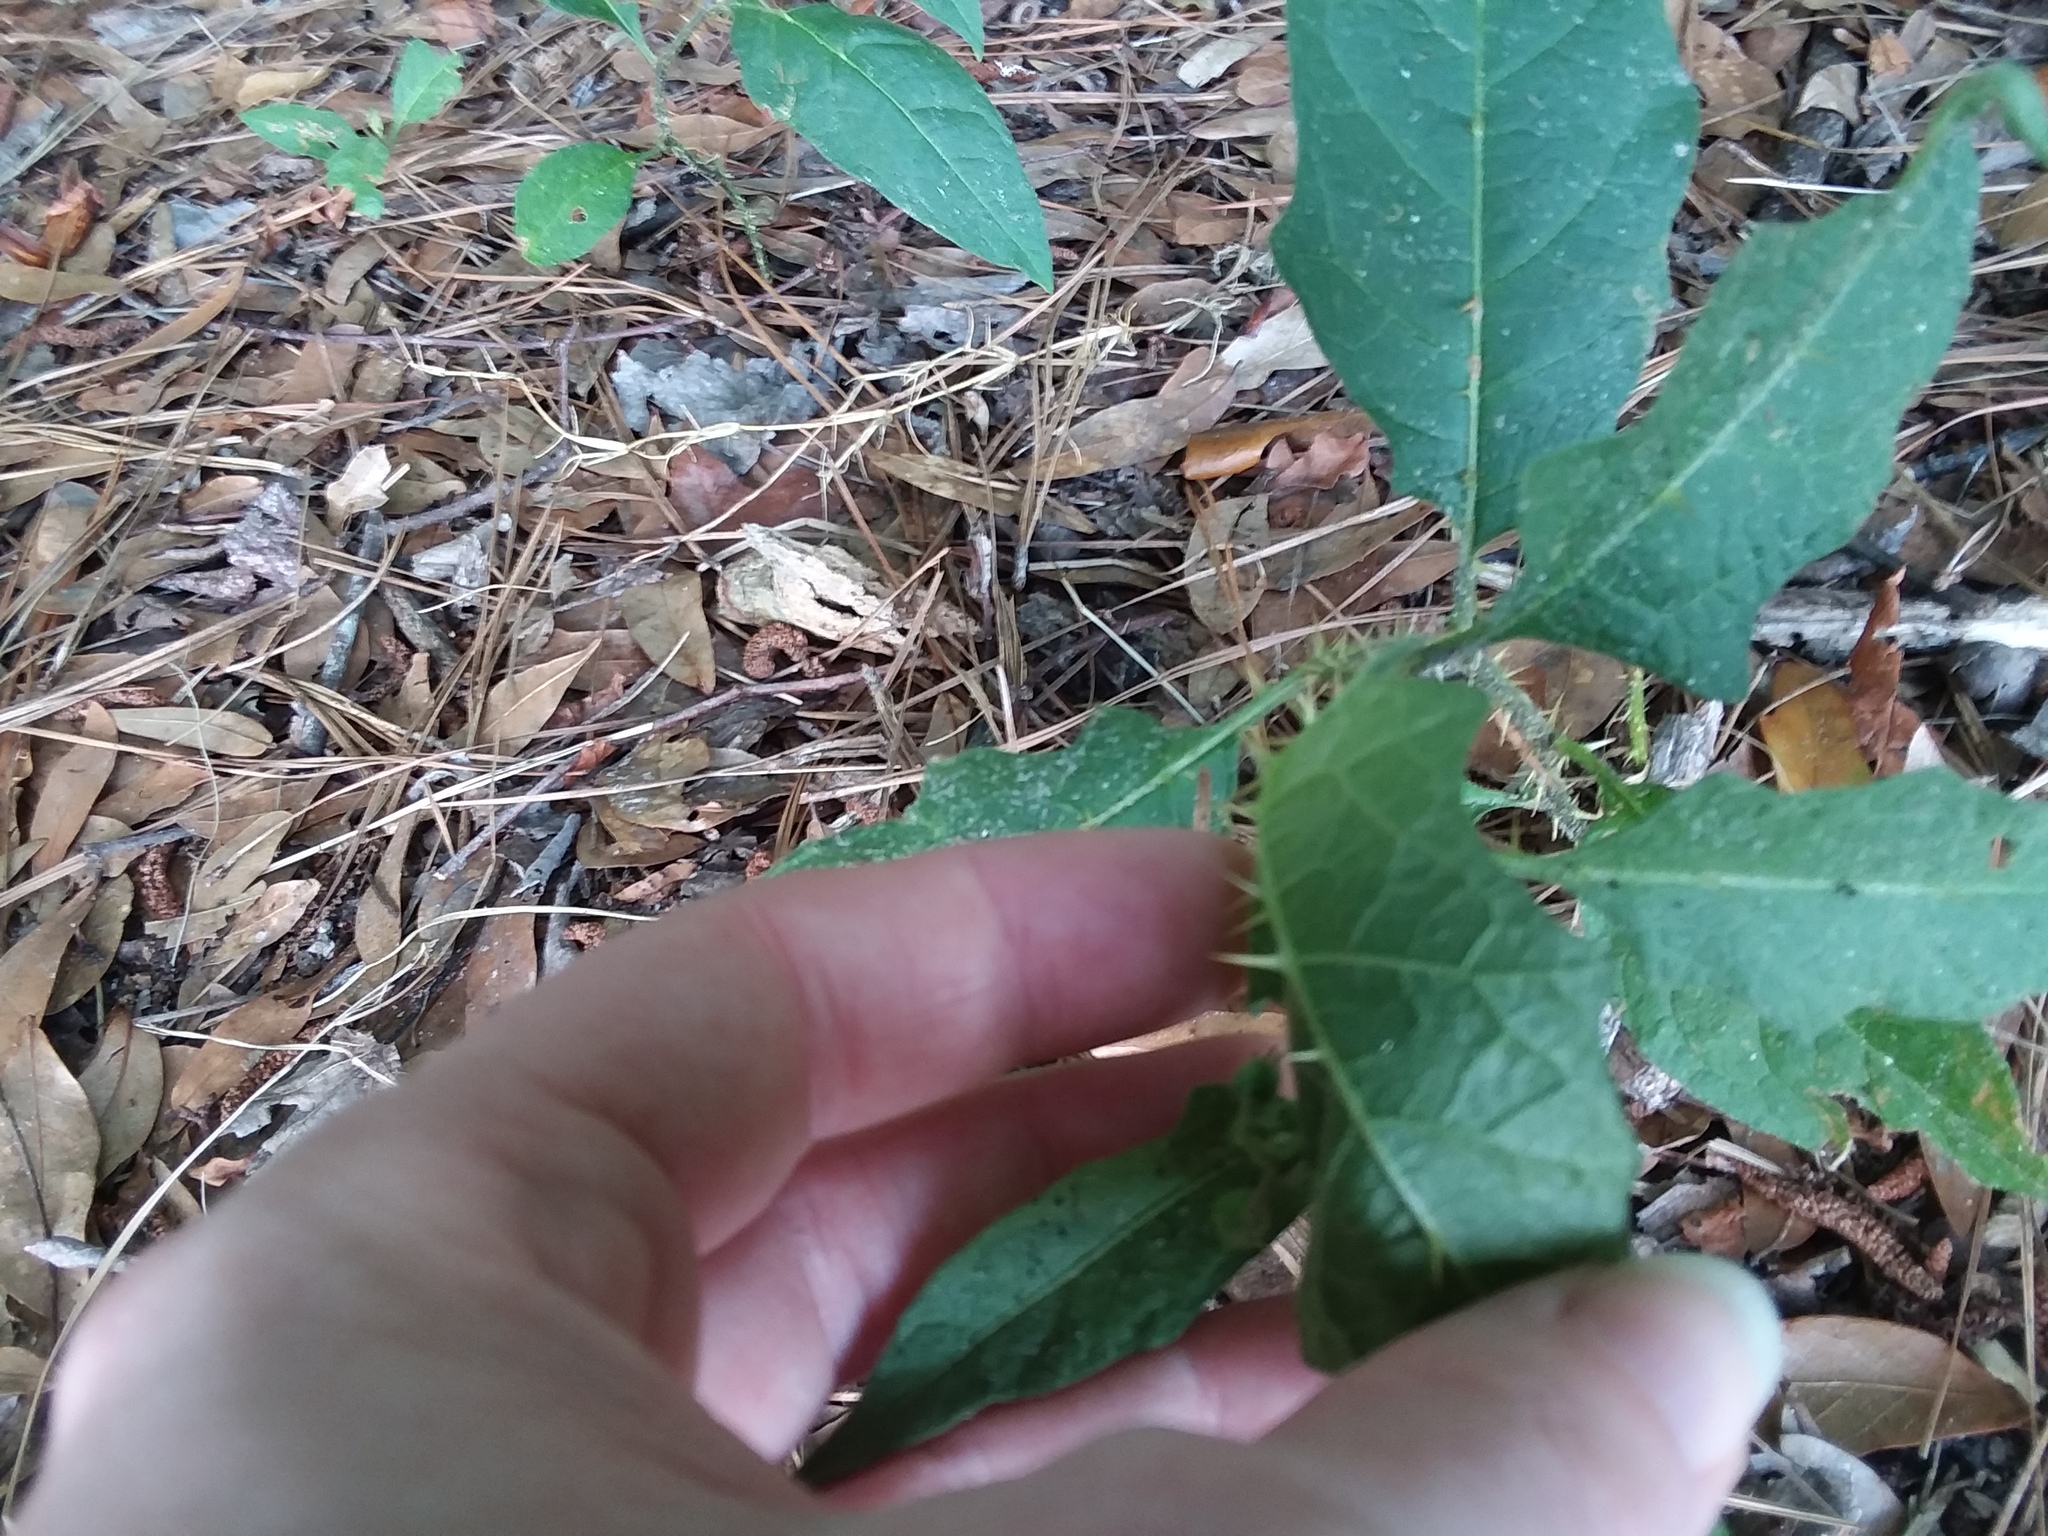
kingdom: Plantae
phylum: Tracheophyta
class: Magnoliopsida
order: Solanales
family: Solanaceae
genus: Solanum
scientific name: Solanum carolinense
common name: Horse-nettle
